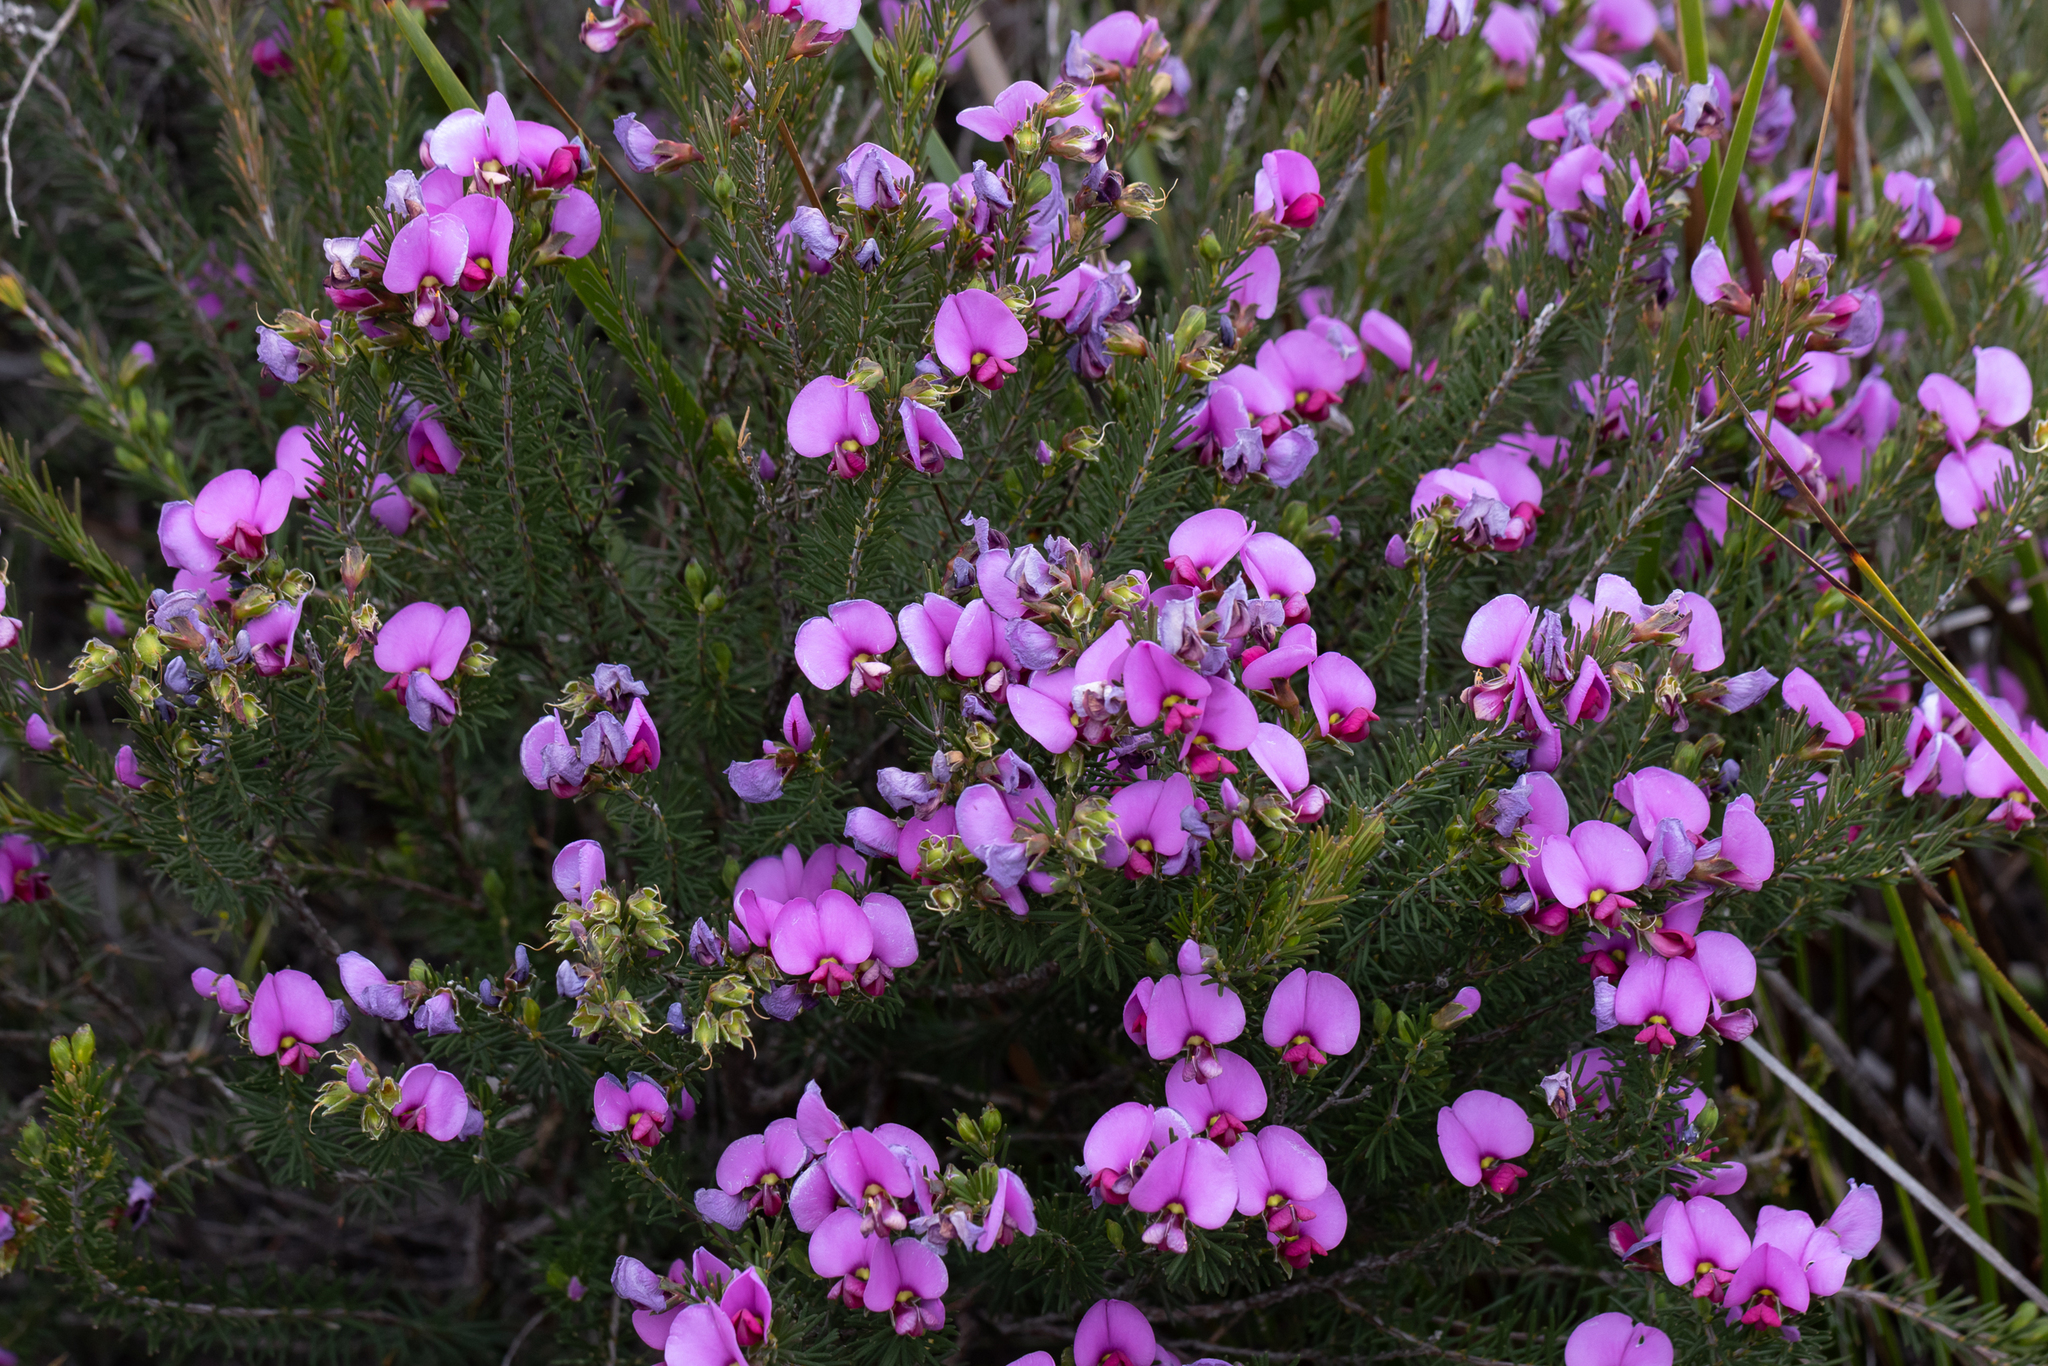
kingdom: Plantae
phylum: Tracheophyta
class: Magnoliopsida
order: Fabales
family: Fabaceae
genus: Gompholobium
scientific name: Gompholobium scabrum
